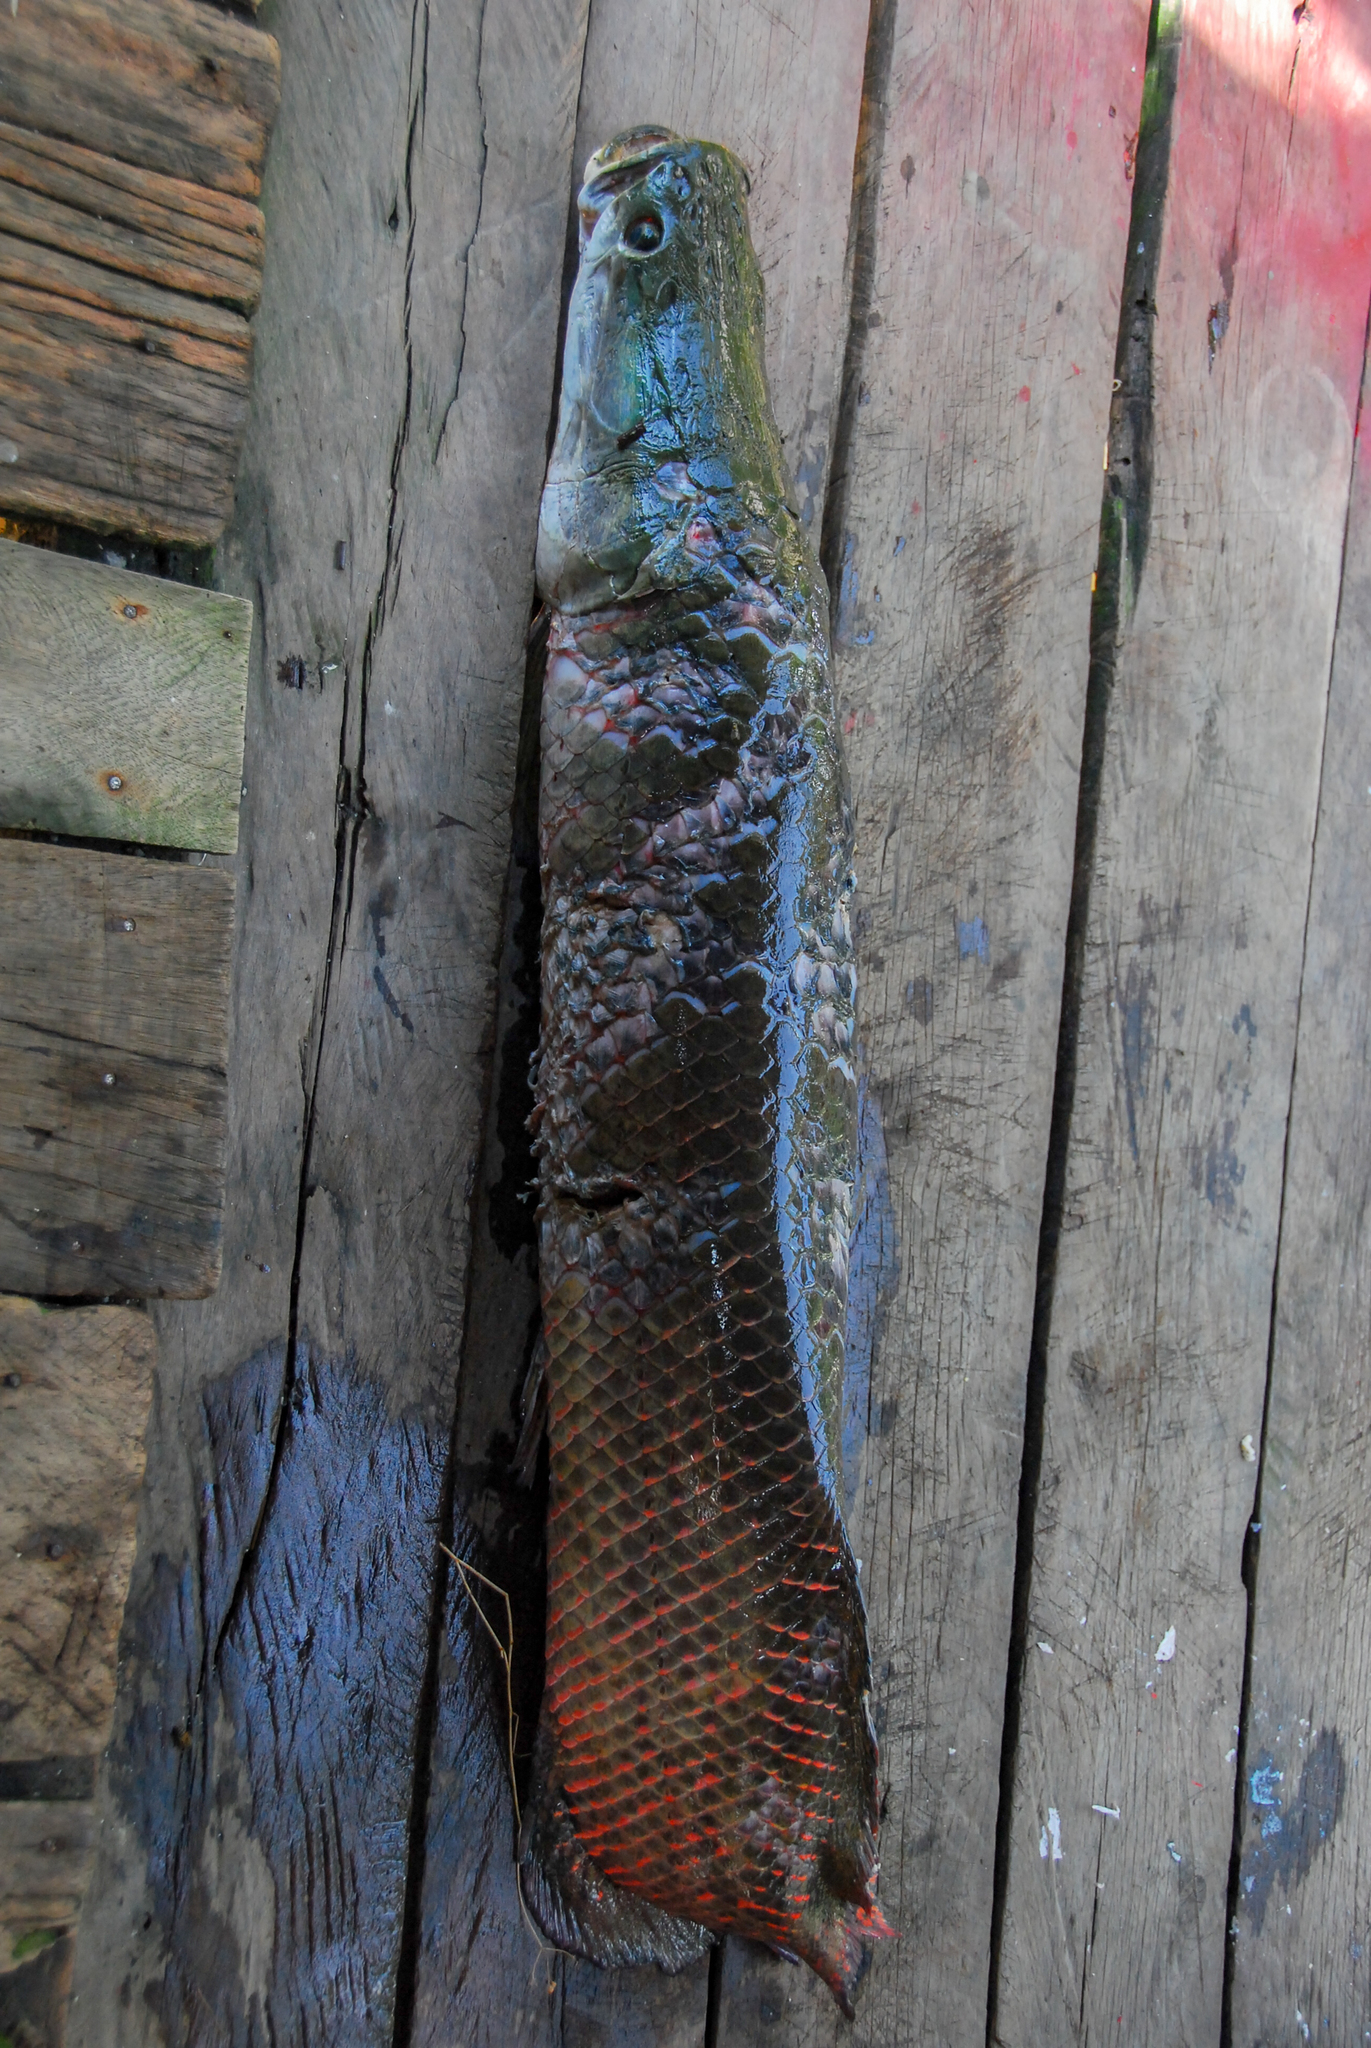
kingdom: Animalia
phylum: Chordata
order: Osteoglossiformes
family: Arapaimidae
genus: Arapaima
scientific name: Arapaima gigas
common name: Arapaima
